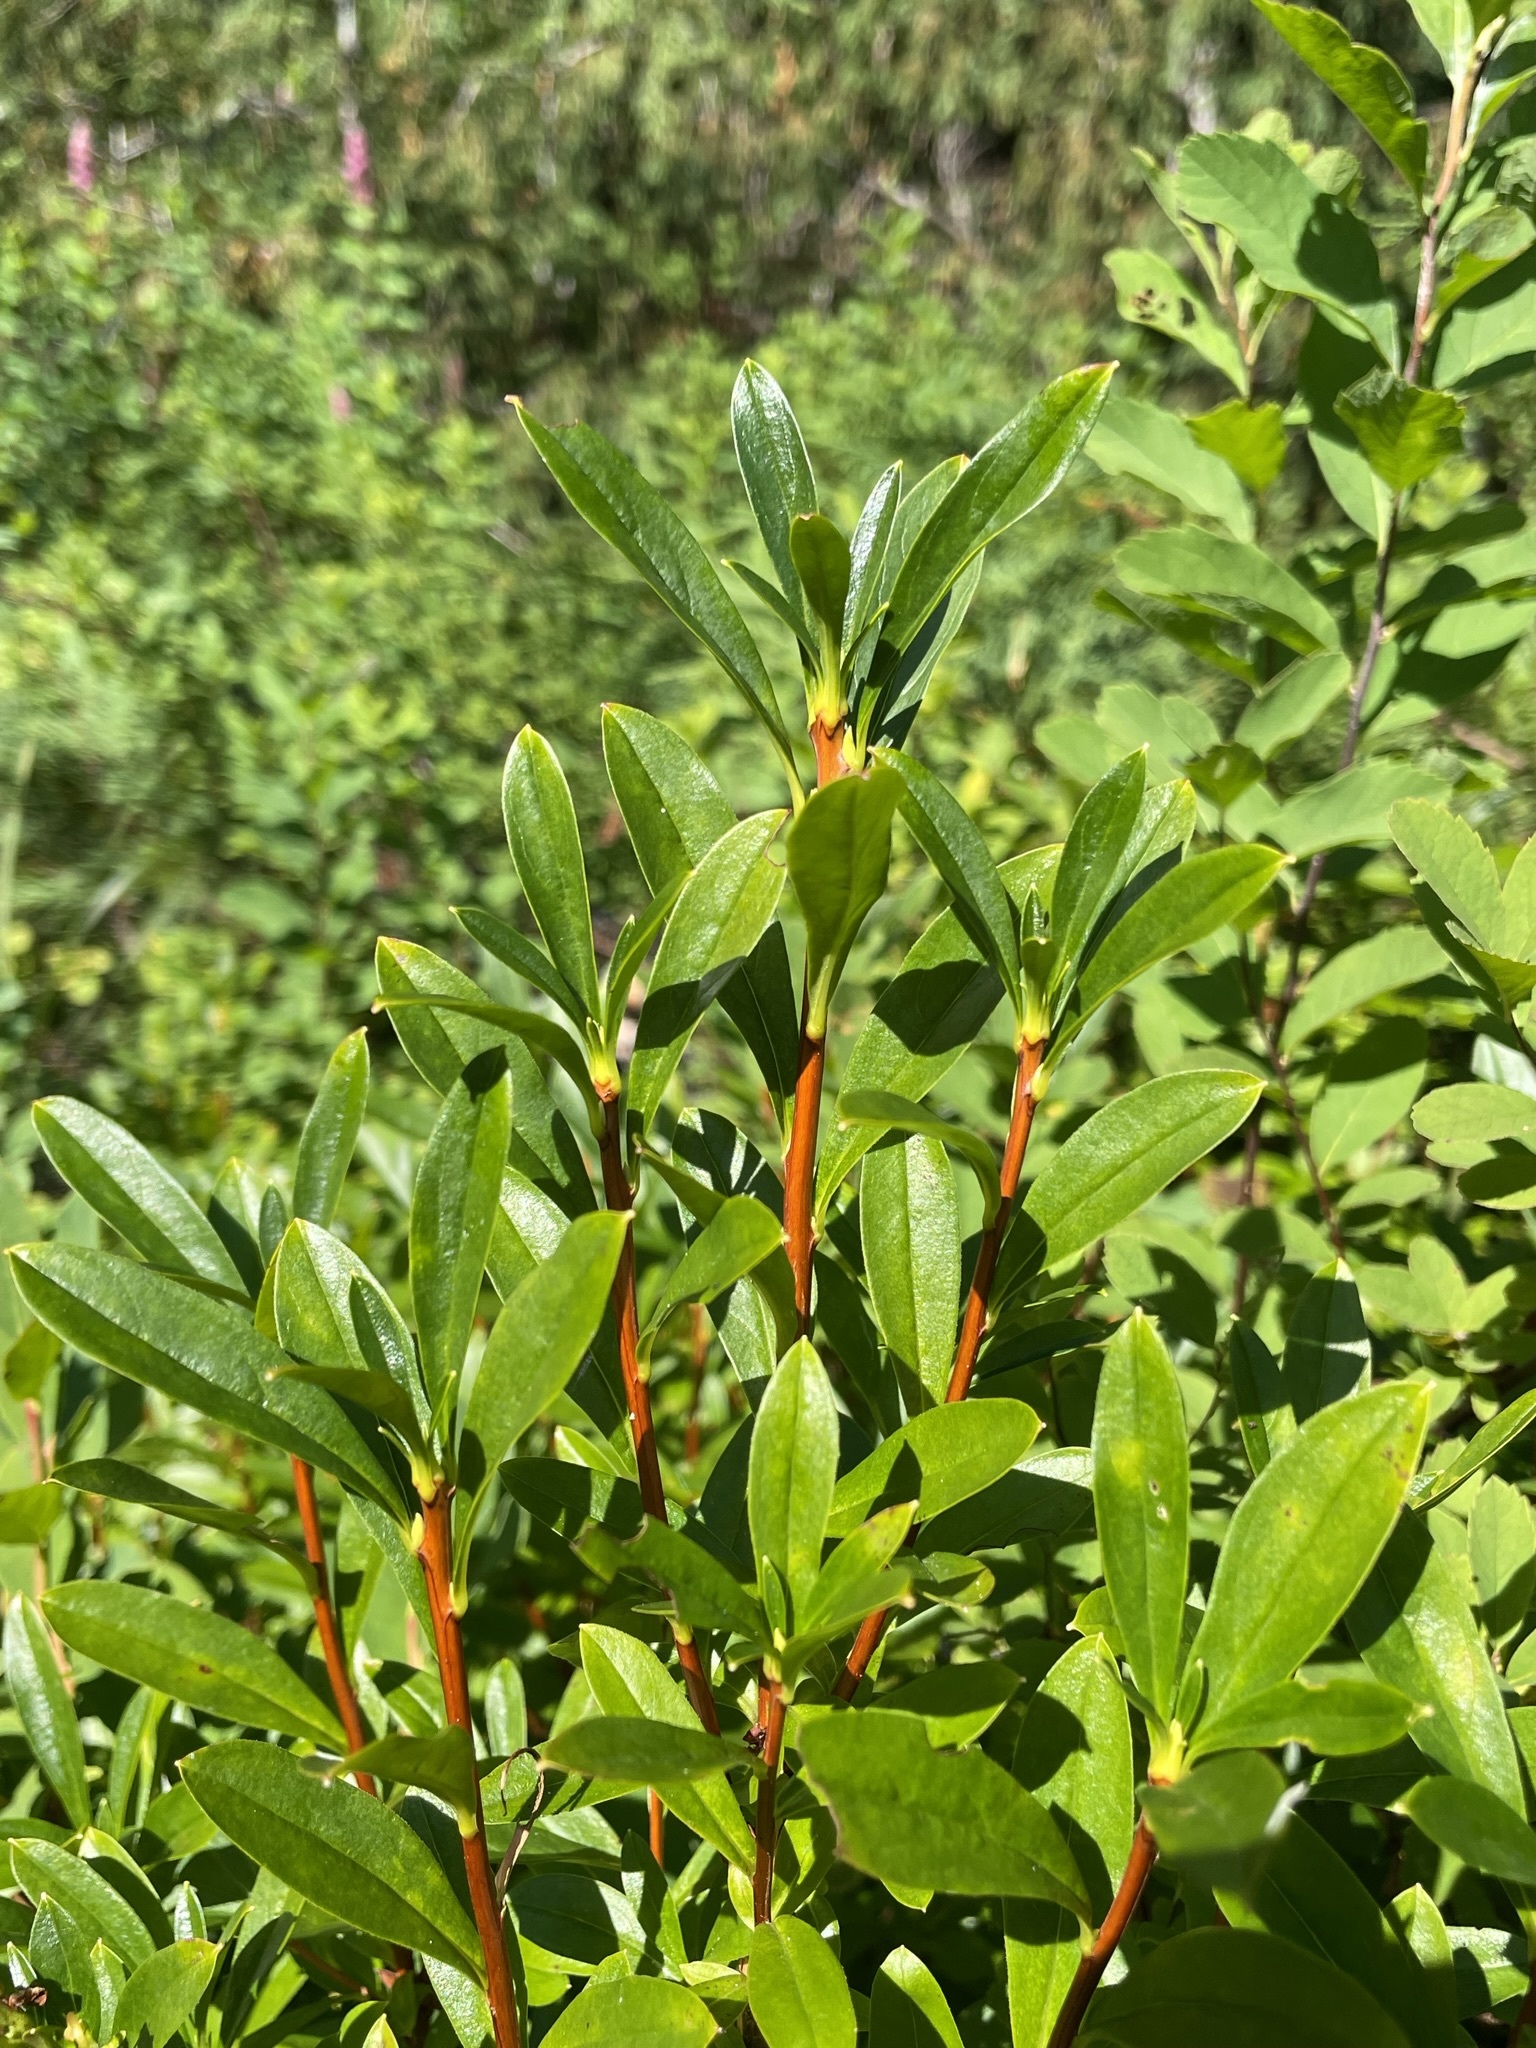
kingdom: Plantae
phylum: Tracheophyta
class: Magnoliopsida
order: Ericales
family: Ericaceae
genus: Elliottia
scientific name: Elliottia pyroliflora
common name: Copperbush
